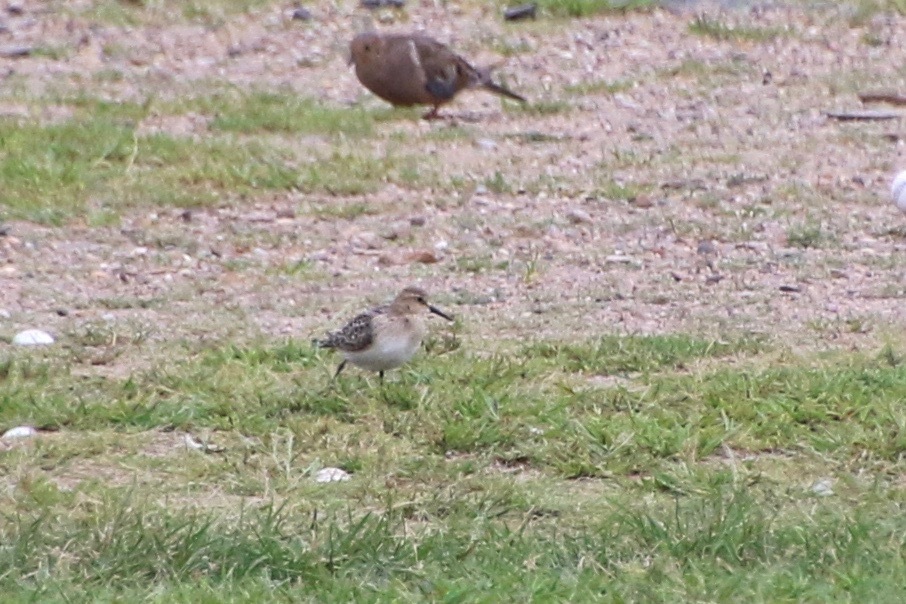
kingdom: Animalia
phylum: Chordata
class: Aves
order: Charadriiformes
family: Scolopacidae
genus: Calidris
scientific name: Calidris bairdii
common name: Baird's sandpiper
